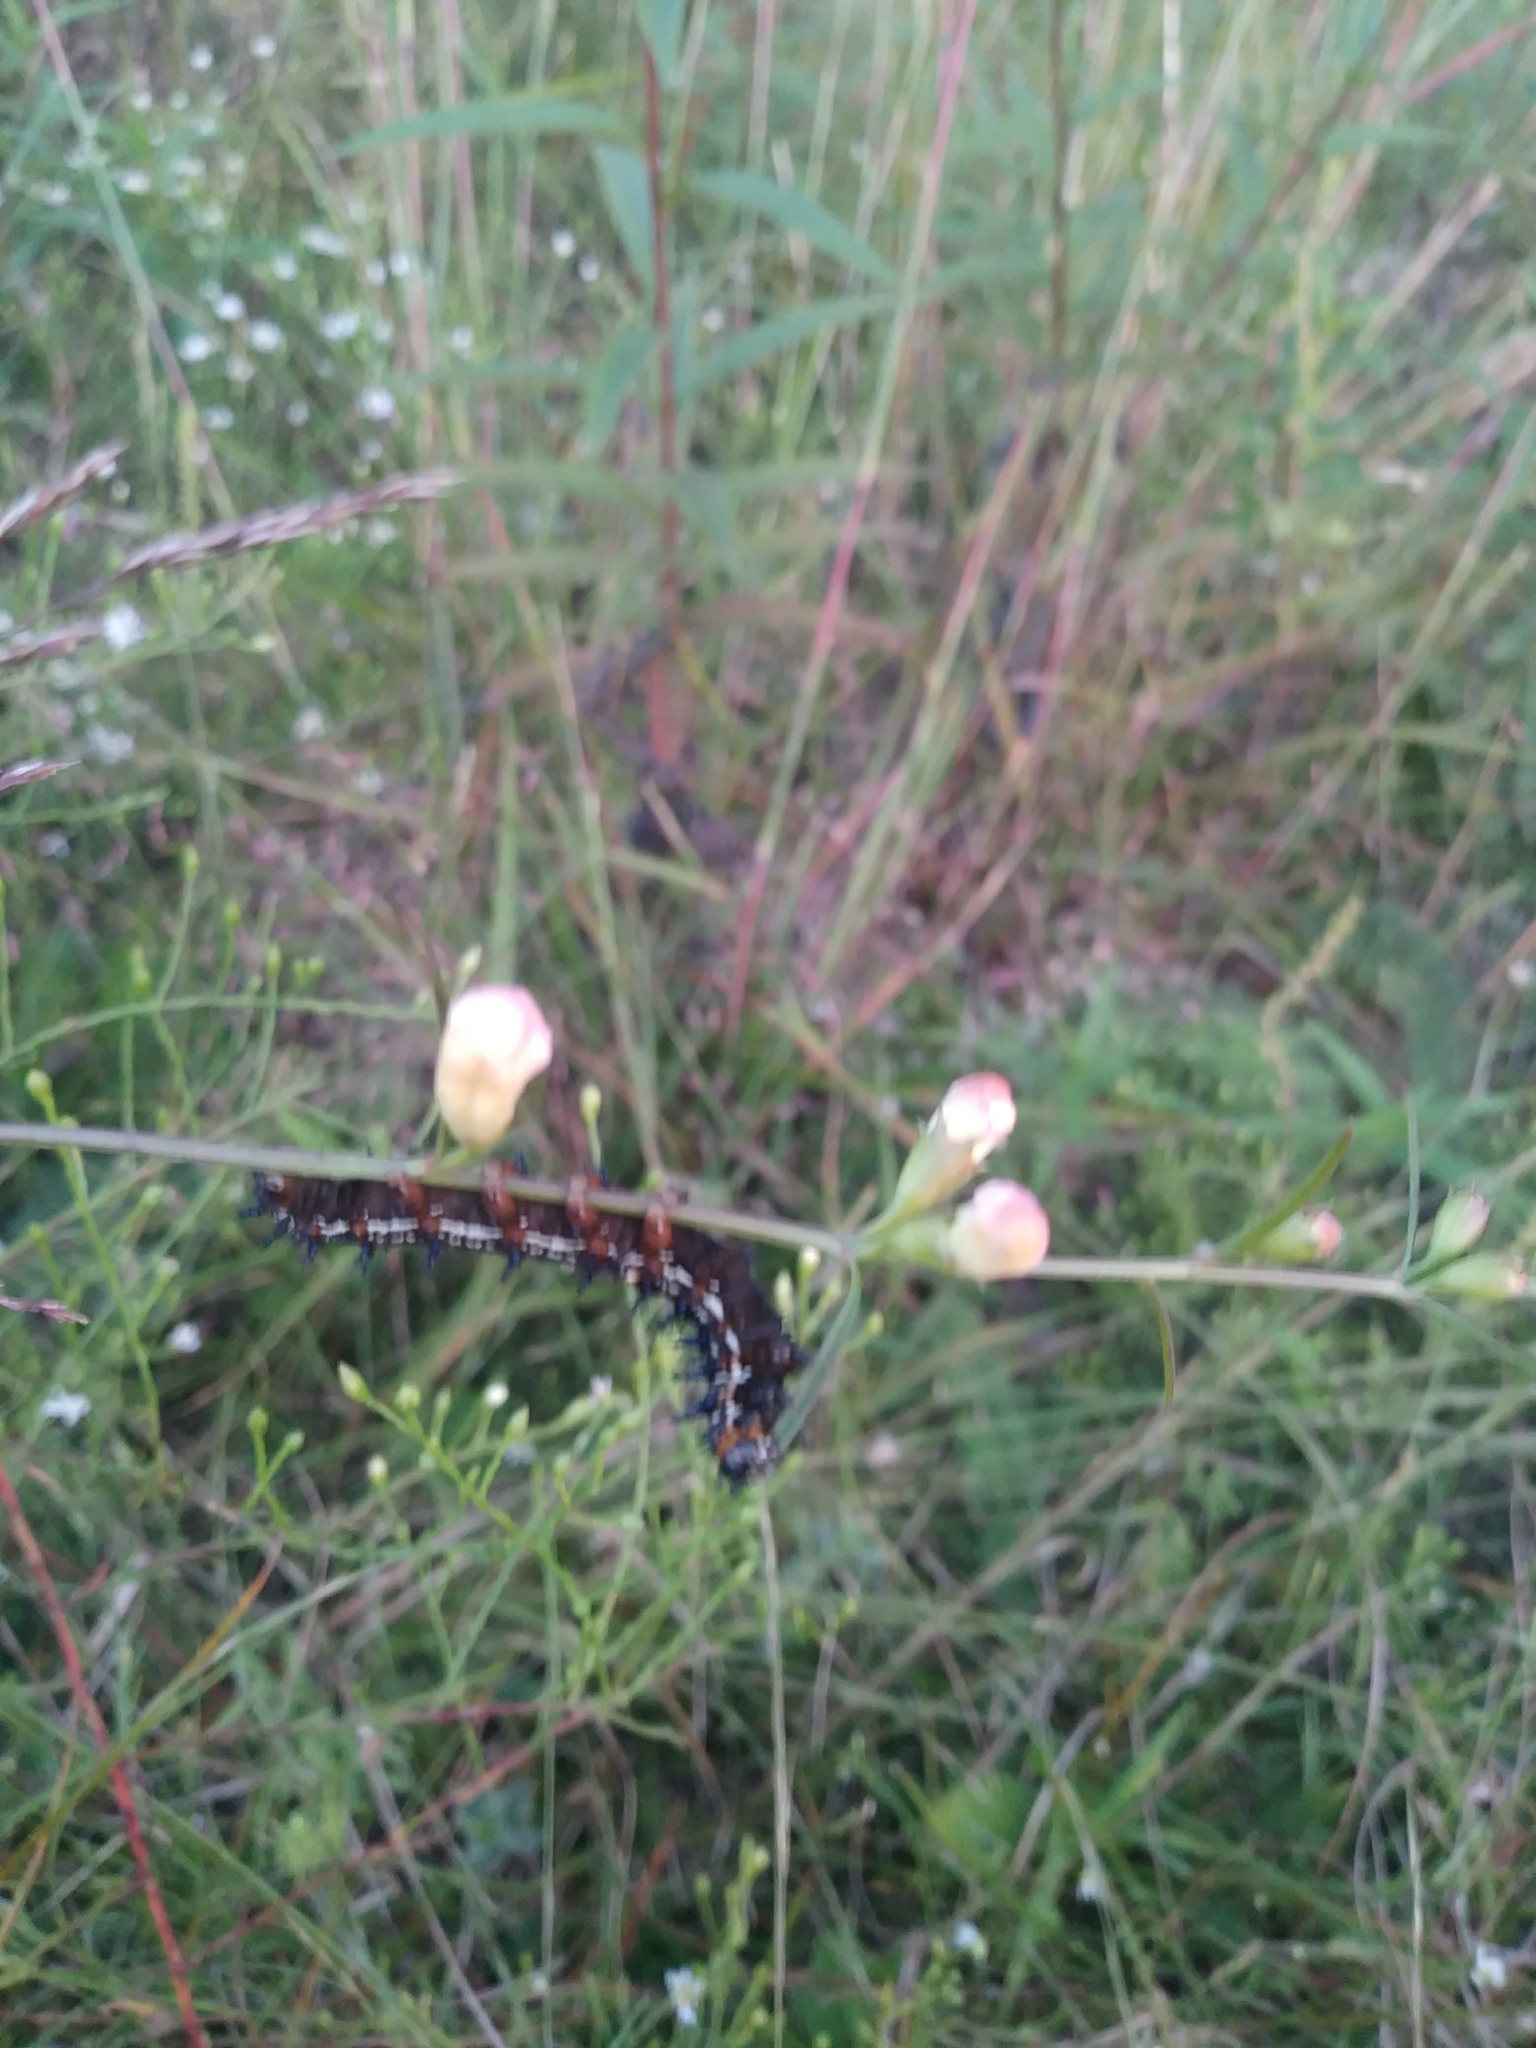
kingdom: Animalia
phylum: Arthropoda
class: Insecta
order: Lepidoptera
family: Nymphalidae
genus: Junonia
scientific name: Junonia coenia
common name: Common buckeye
